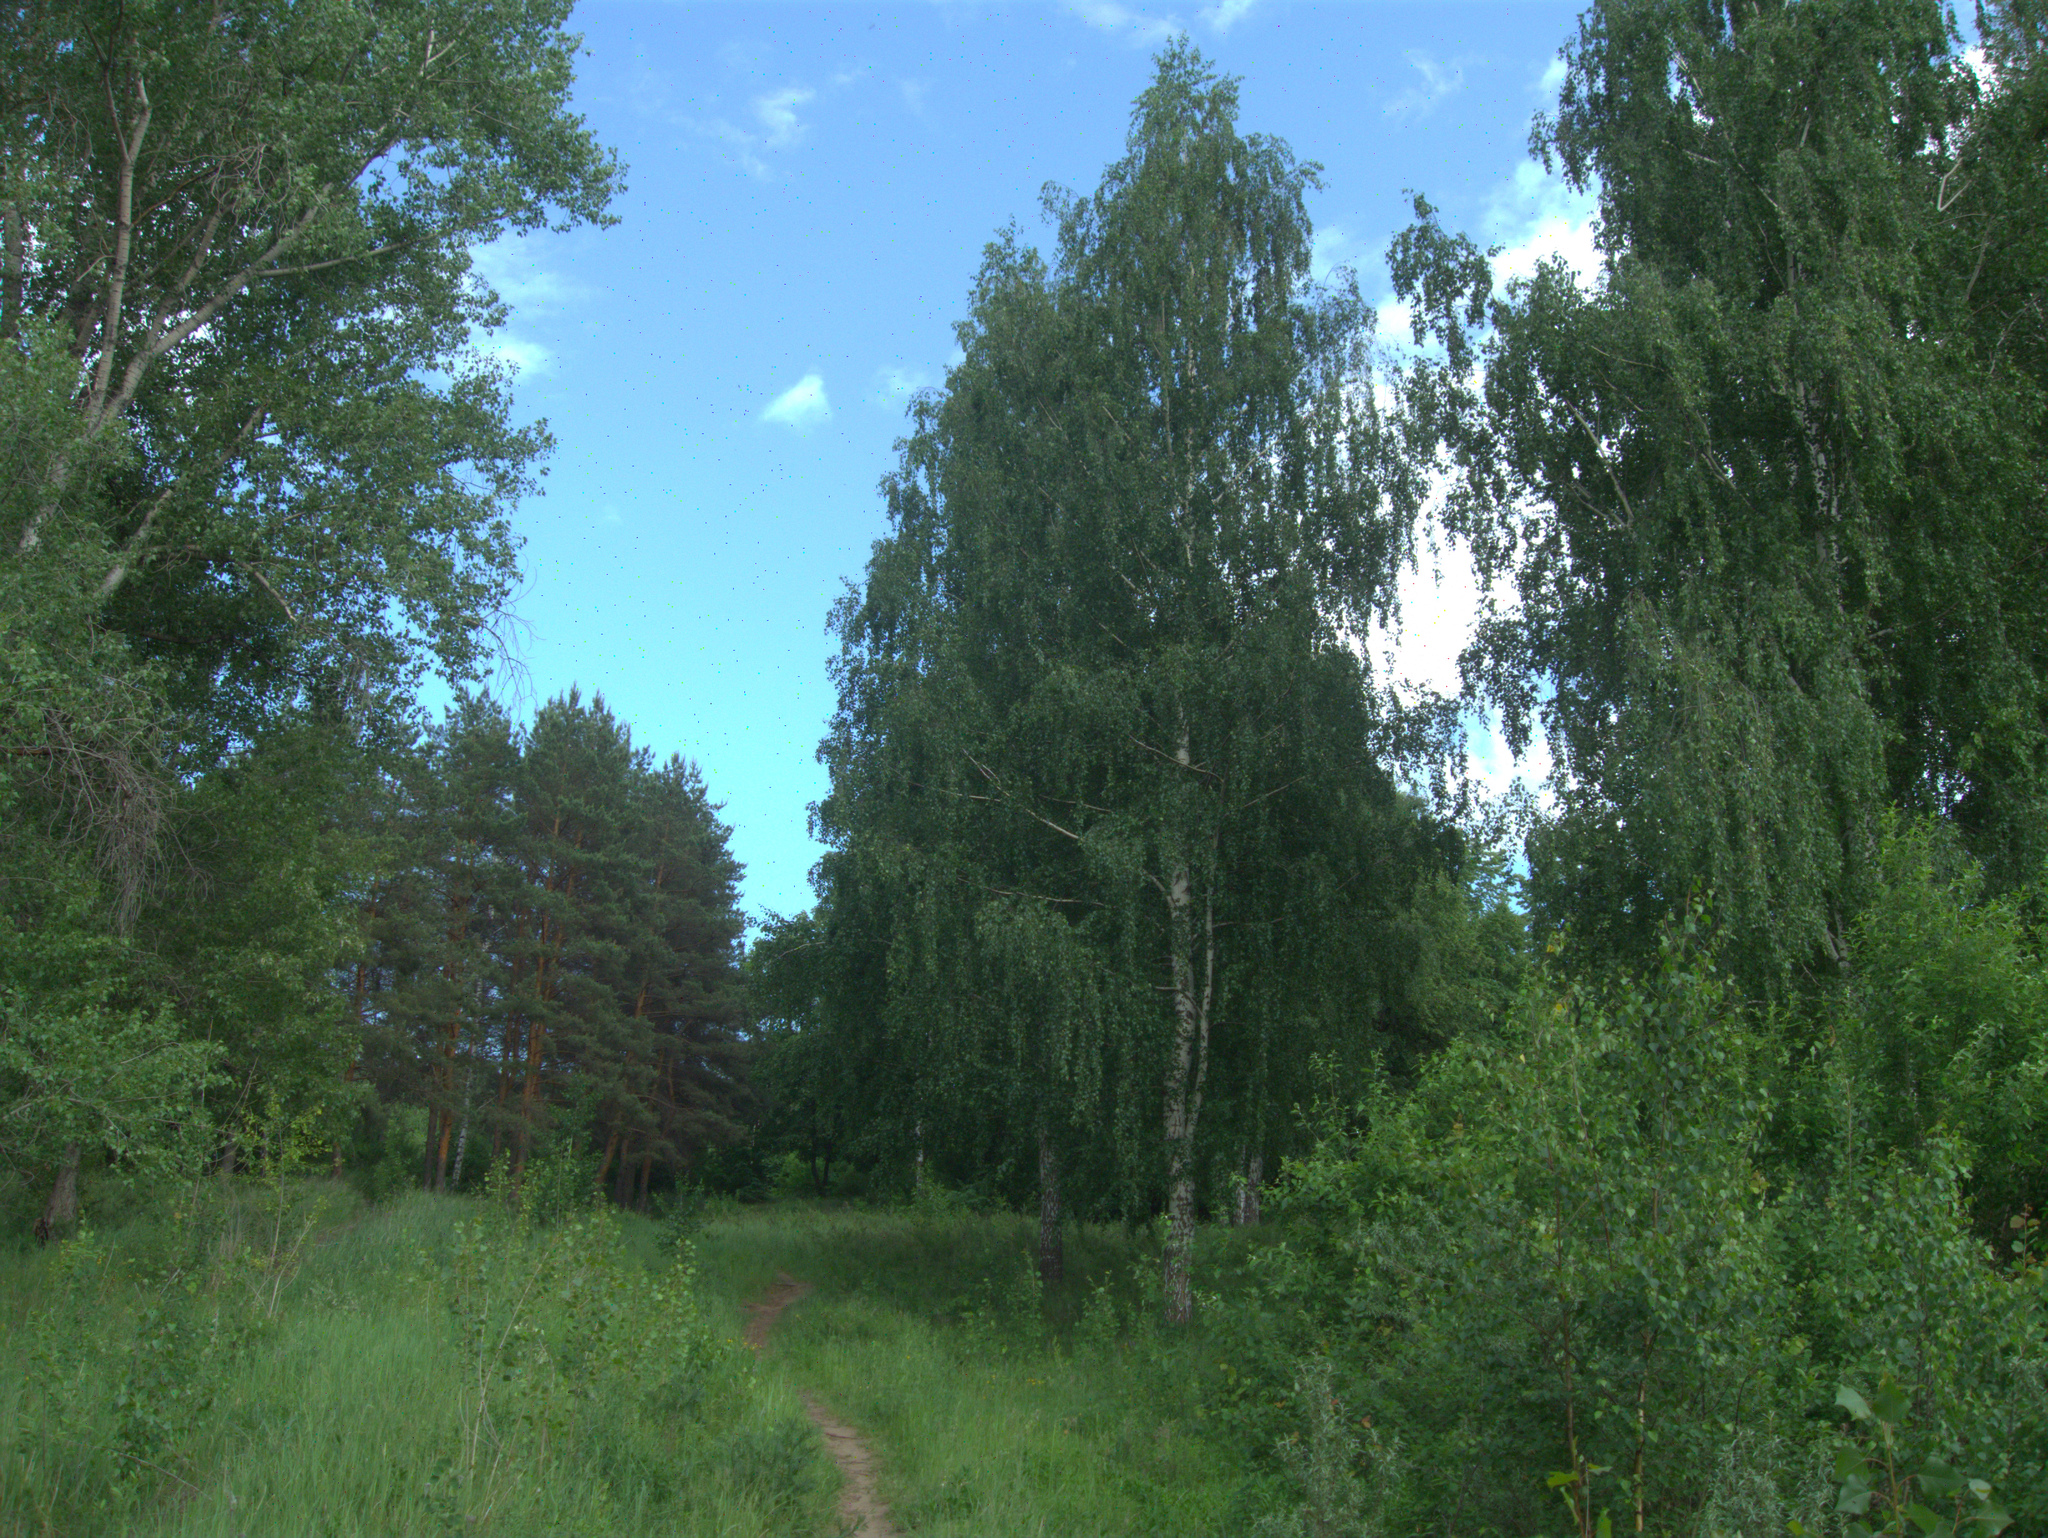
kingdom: Plantae
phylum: Tracheophyta
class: Magnoliopsida
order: Fagales
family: Betulaceae
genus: Betula
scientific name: Betula pendula
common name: Silver birch
